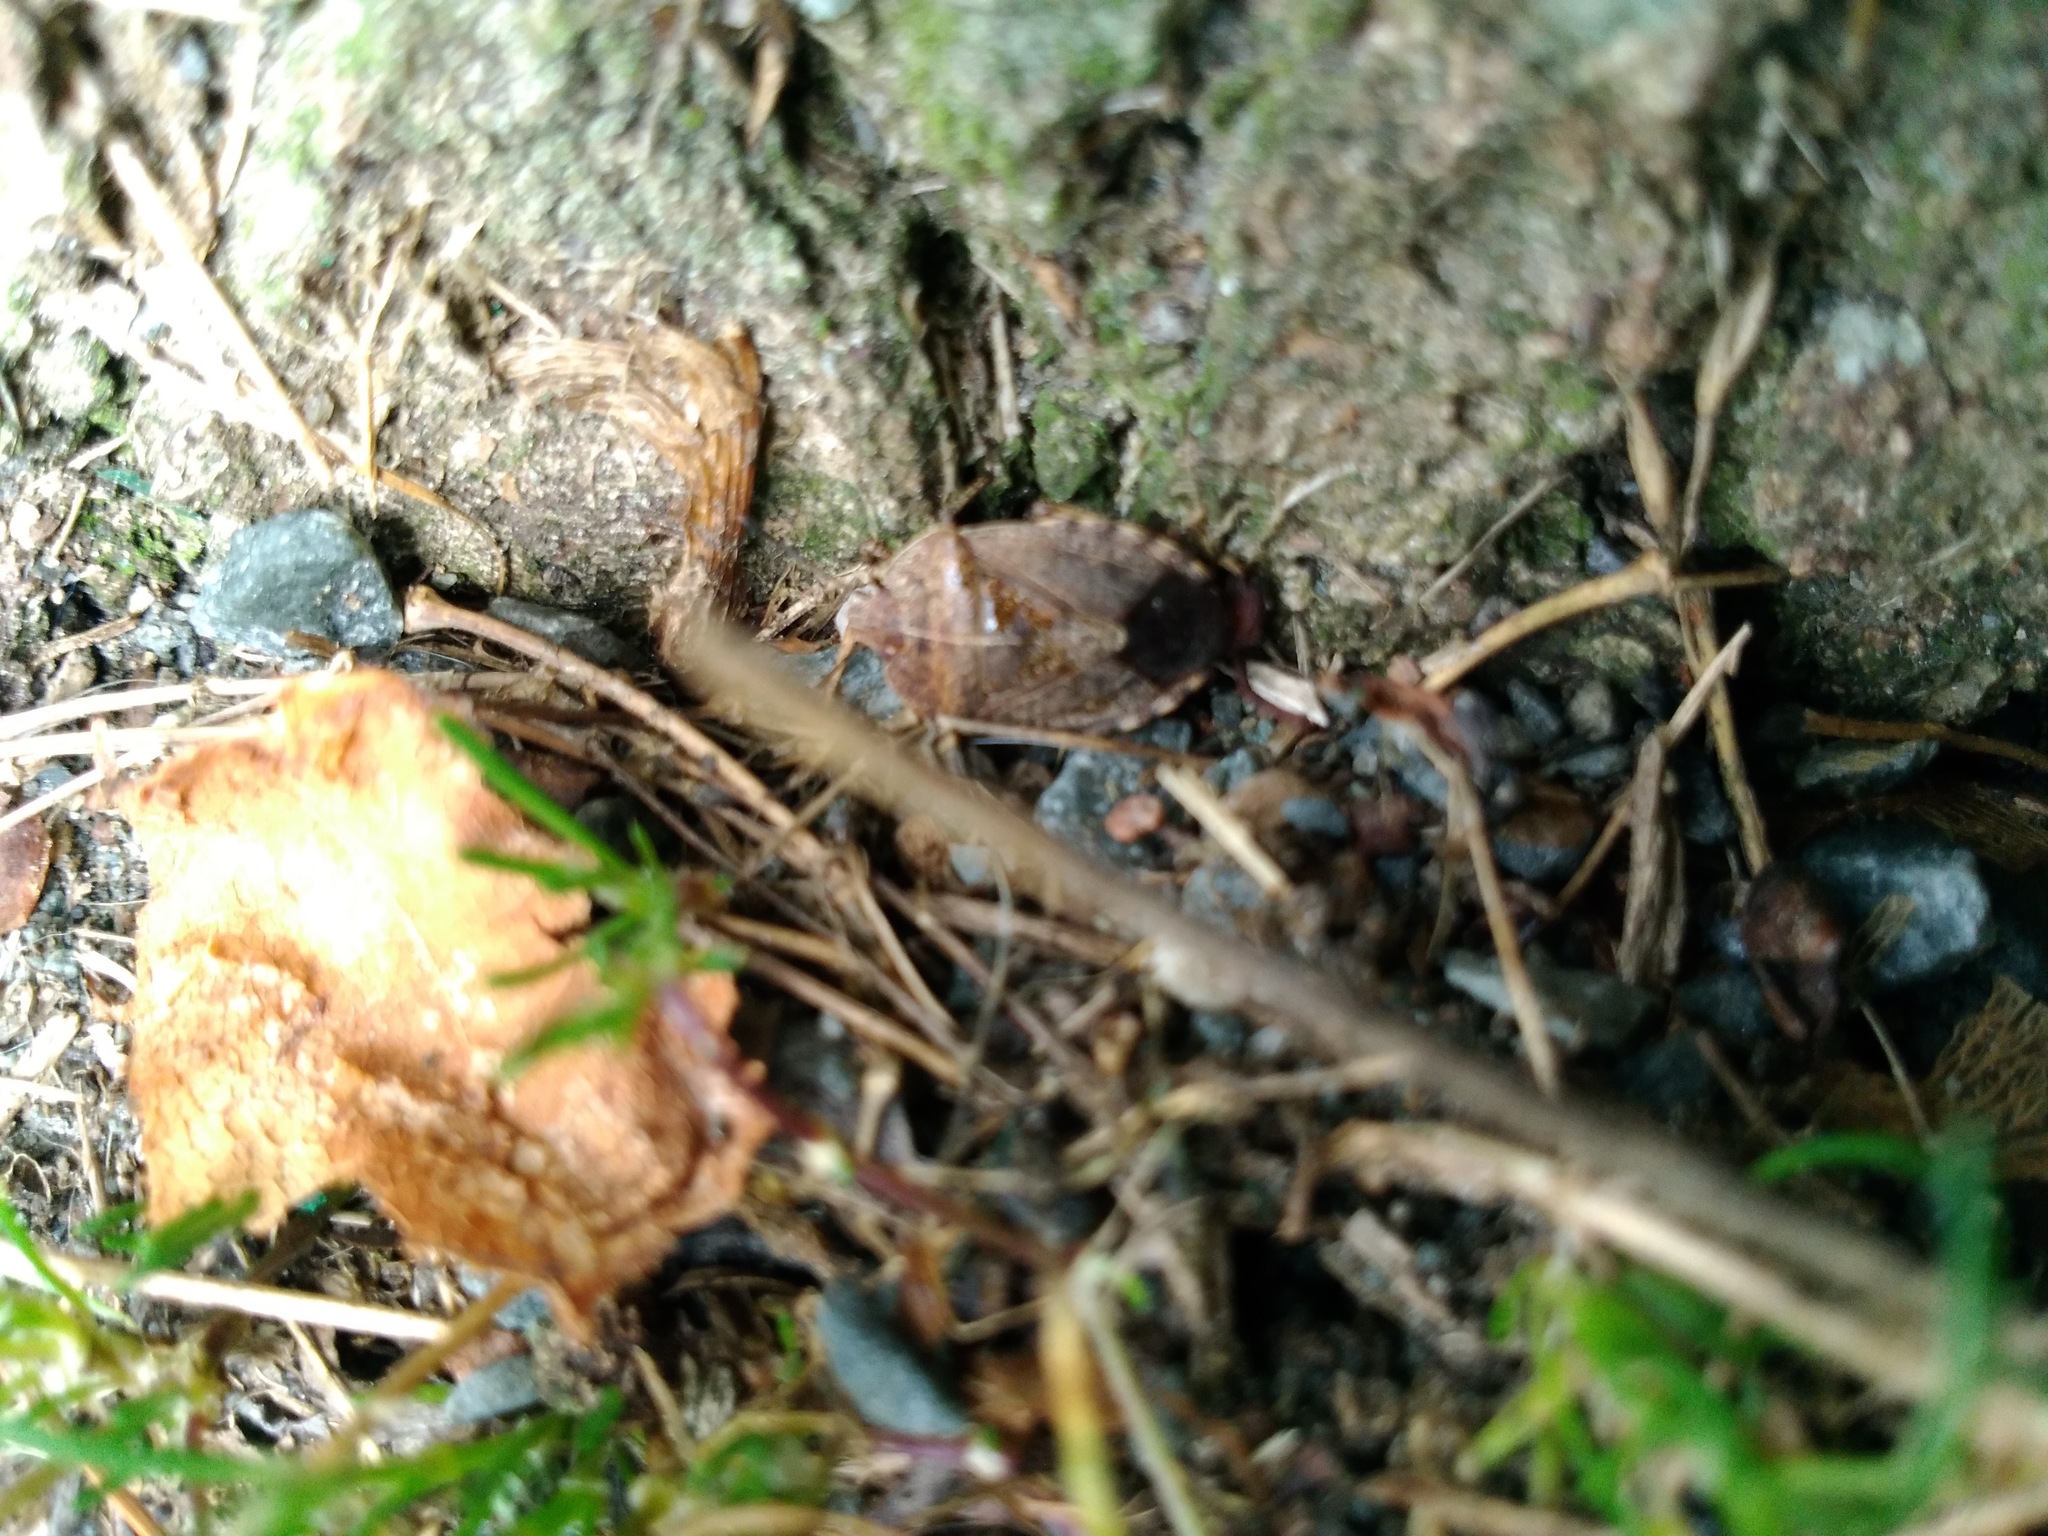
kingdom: Animalia
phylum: Arthropoda
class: Insecta
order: Hemiptera
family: Pentatomidae
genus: Menecles
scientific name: Menecles insertus
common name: Elf shoe stink bug
